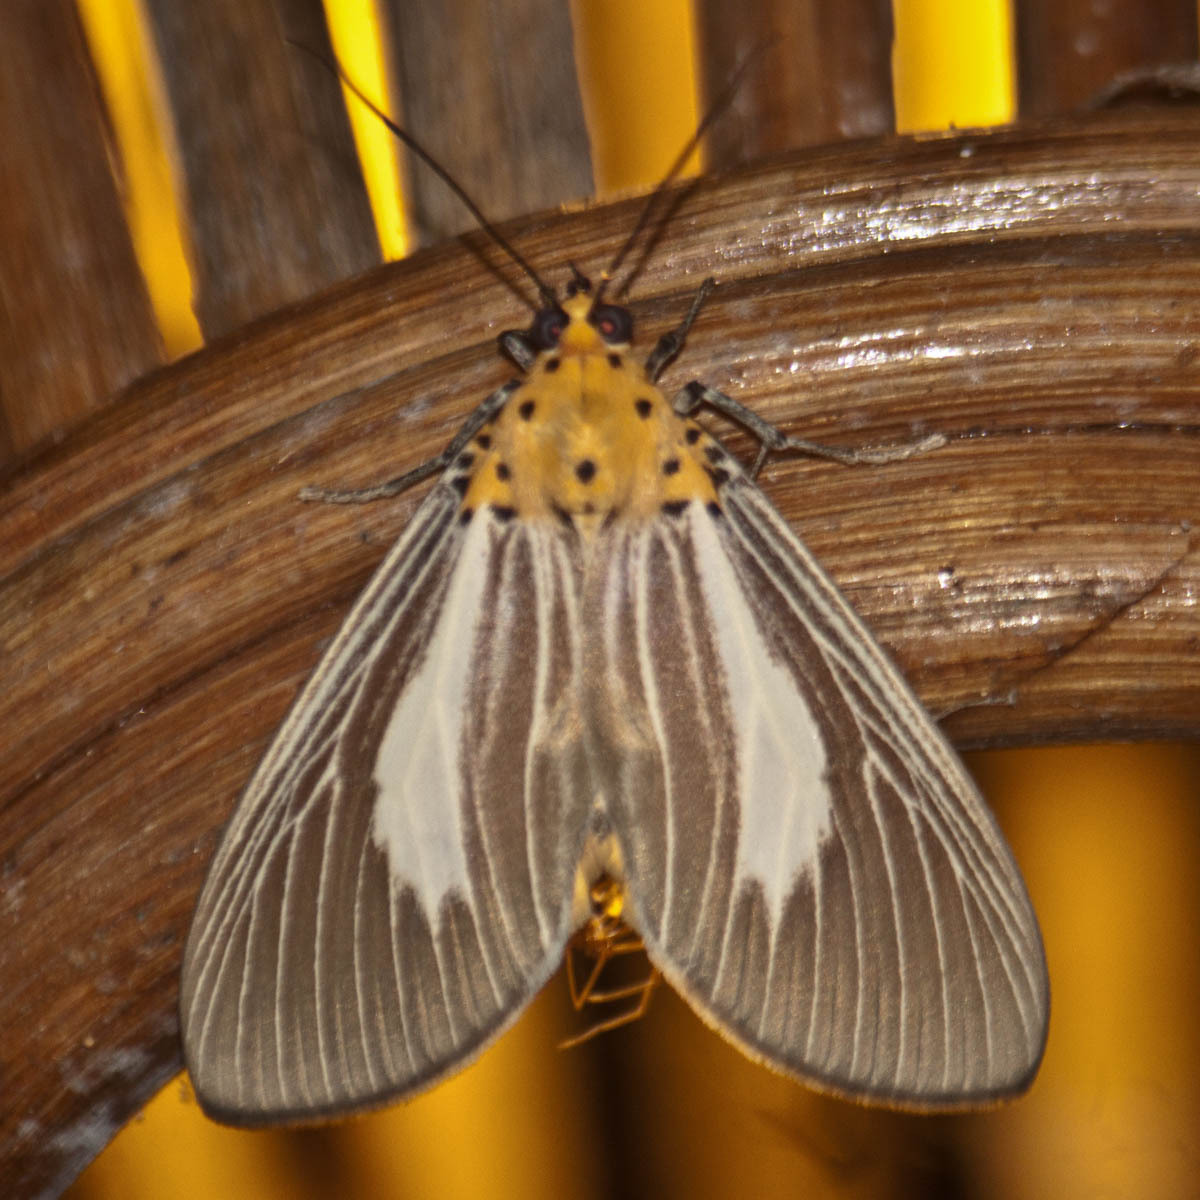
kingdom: Animalia
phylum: Arthropoda
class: Insecta
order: Lepidoptera
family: Erebidae
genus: Asota
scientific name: Asota subsimilis
